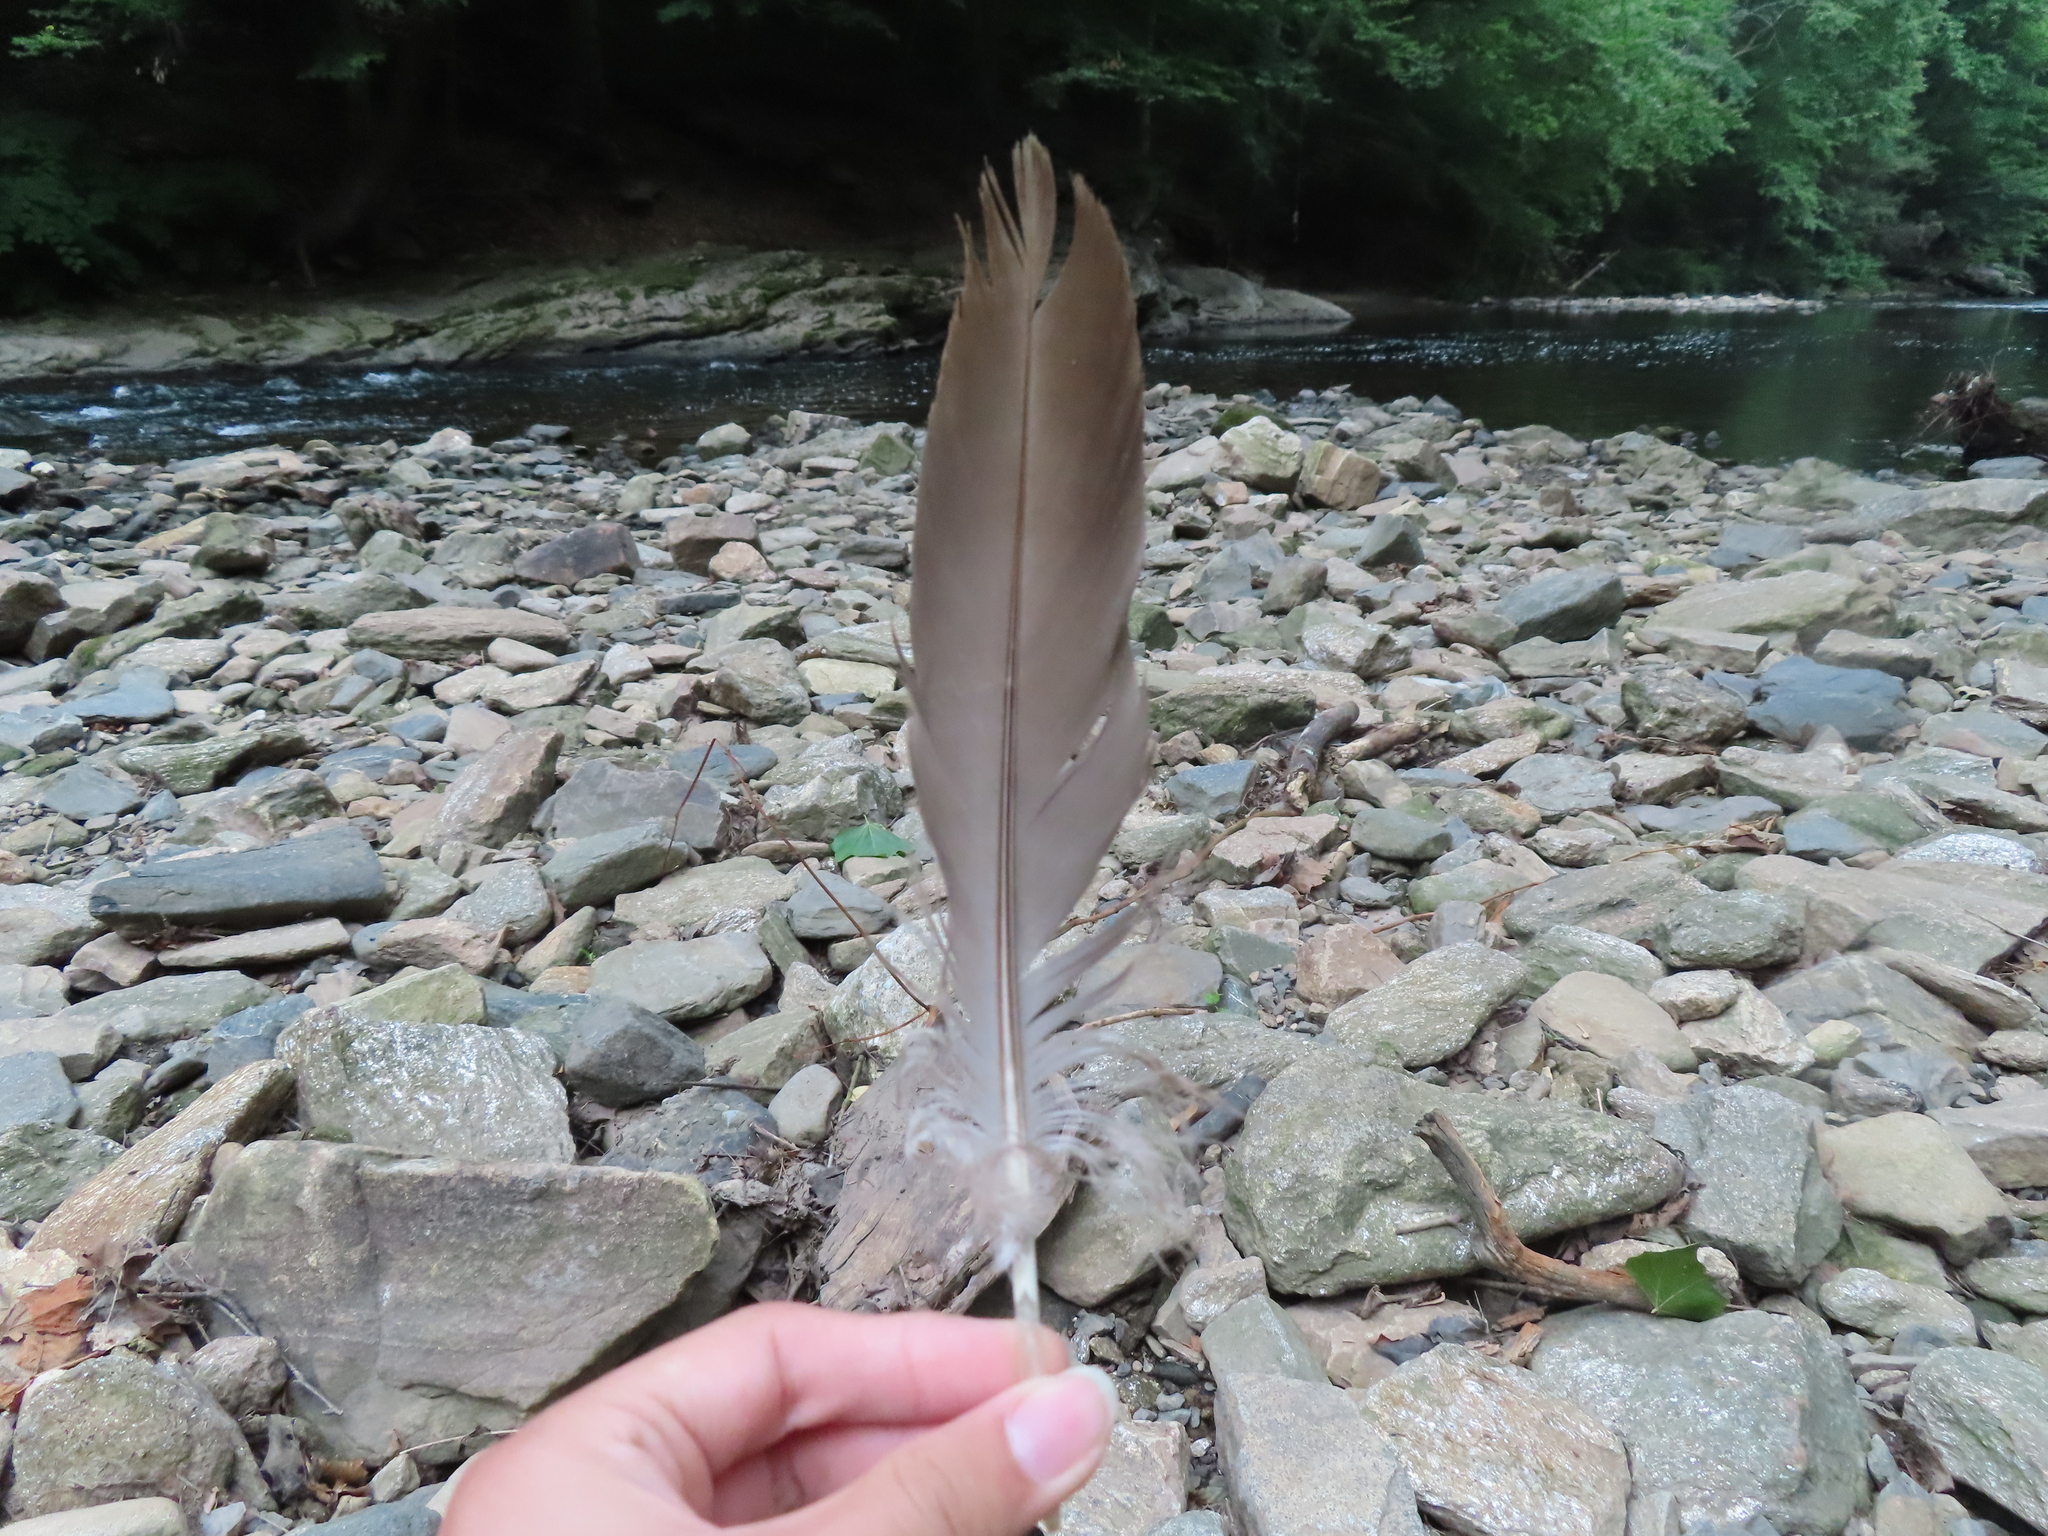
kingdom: Animalia
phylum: Chordata
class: Aves
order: Anseriformes
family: Anatidae
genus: Branta
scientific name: Branta canadensis
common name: Canada goose
